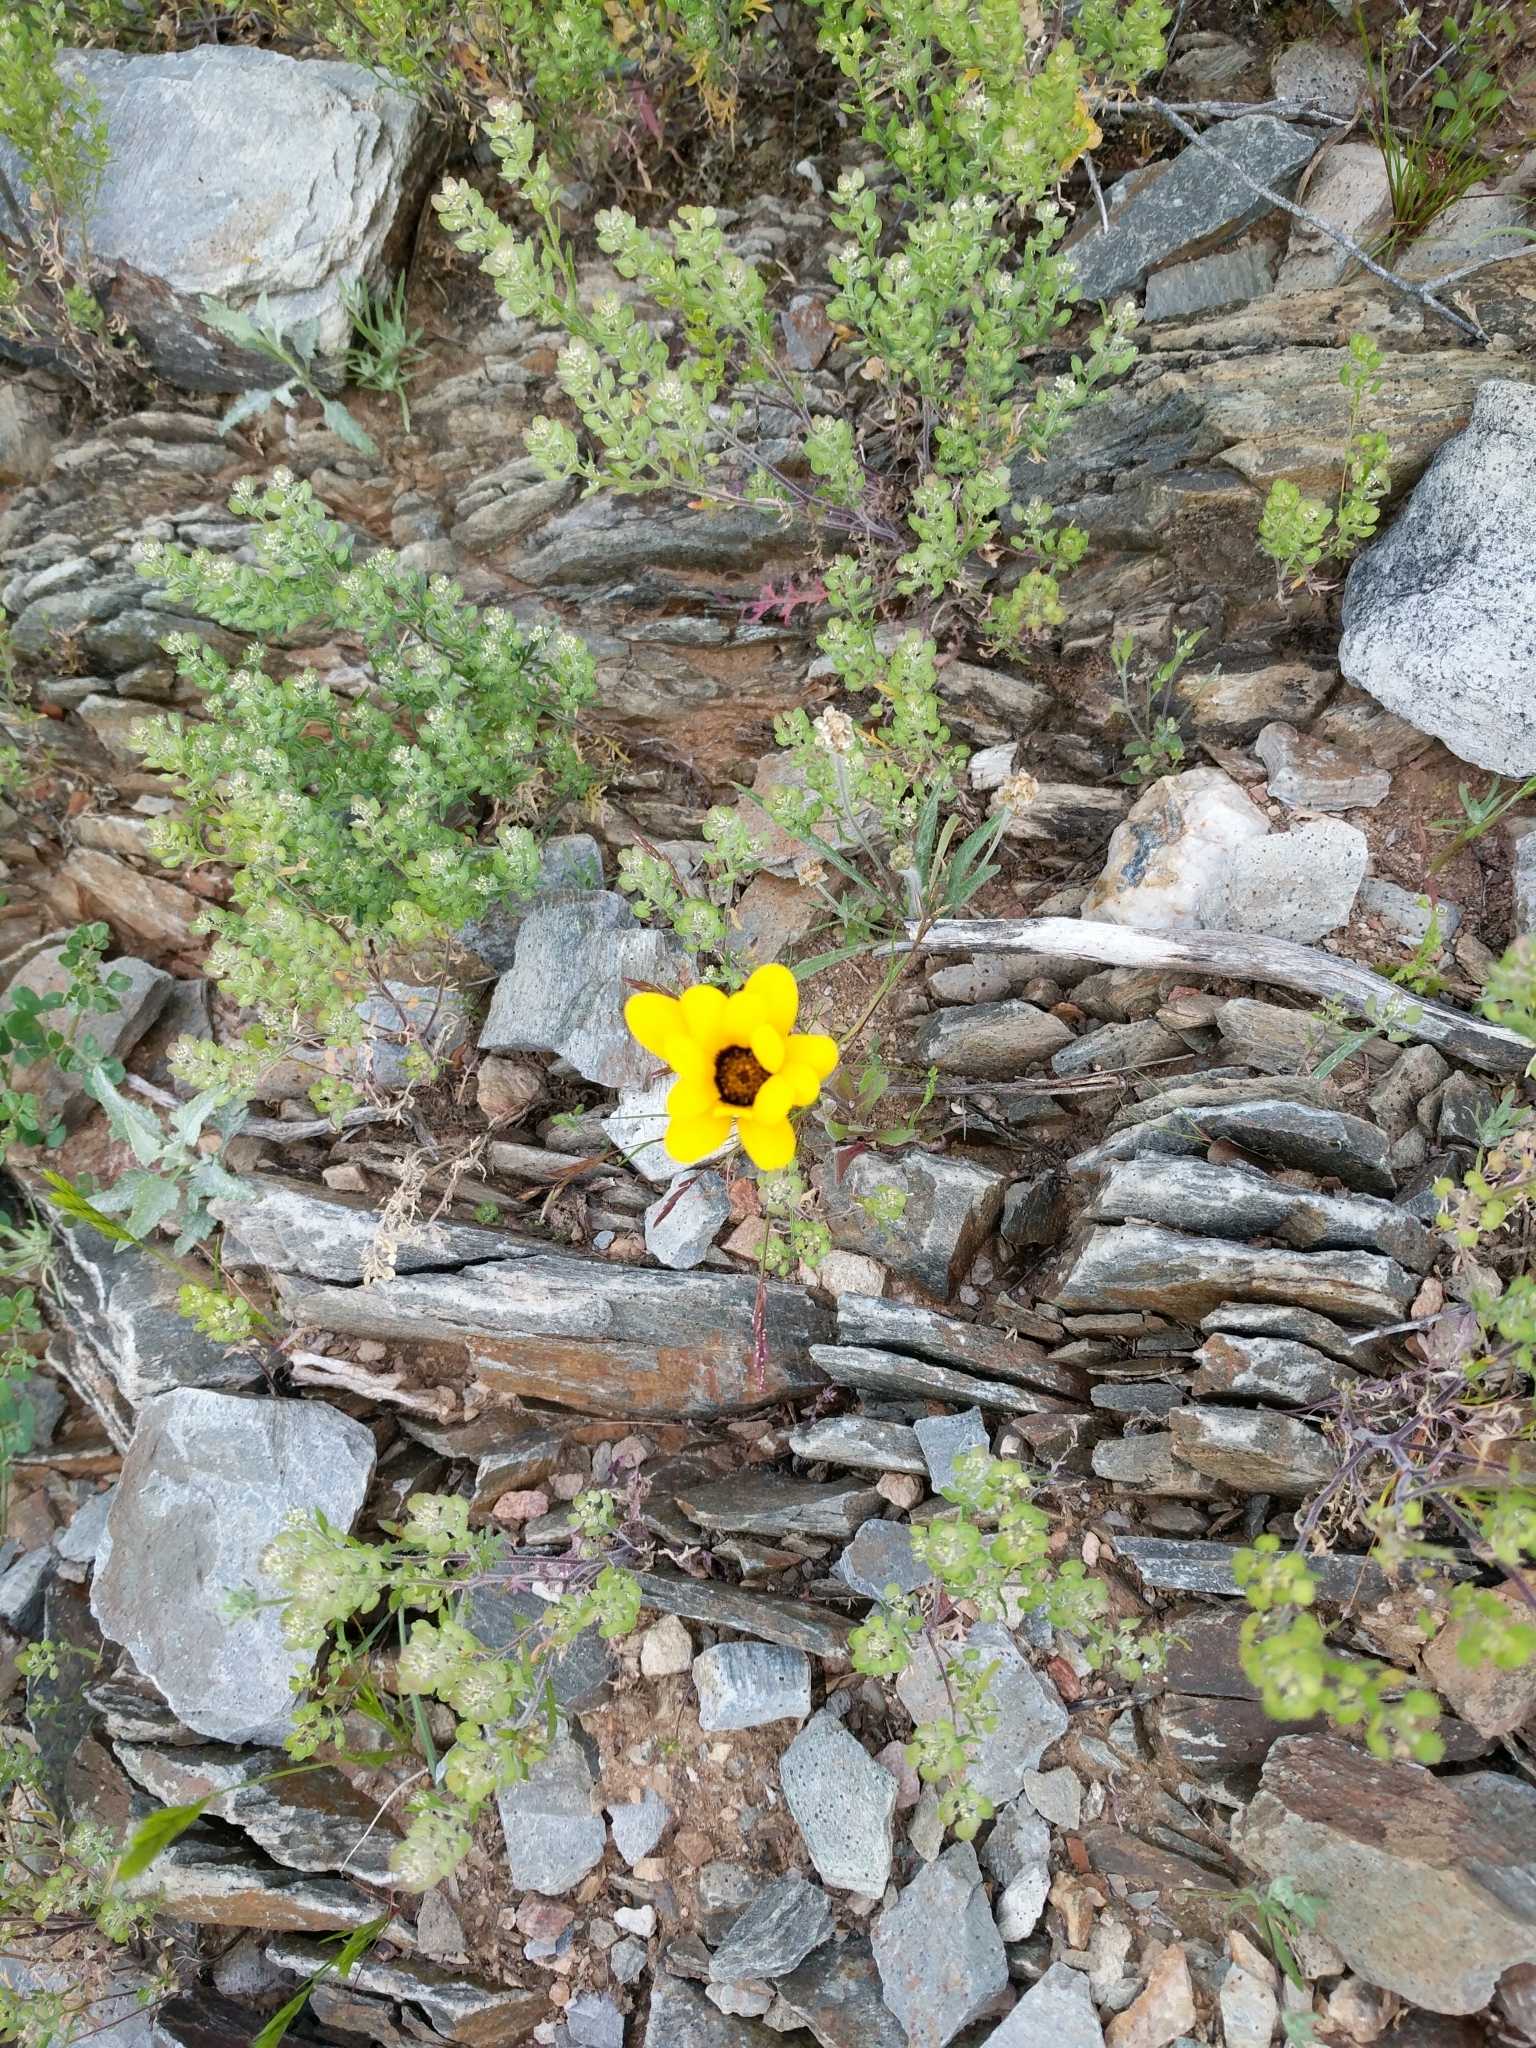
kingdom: Plantae
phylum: Tracheophyta
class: Magnoliopsida
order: Asterales
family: Asteraceae
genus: Dimorphotheca
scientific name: Dimorphotheca sinuata
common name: Glandular cape marigold
